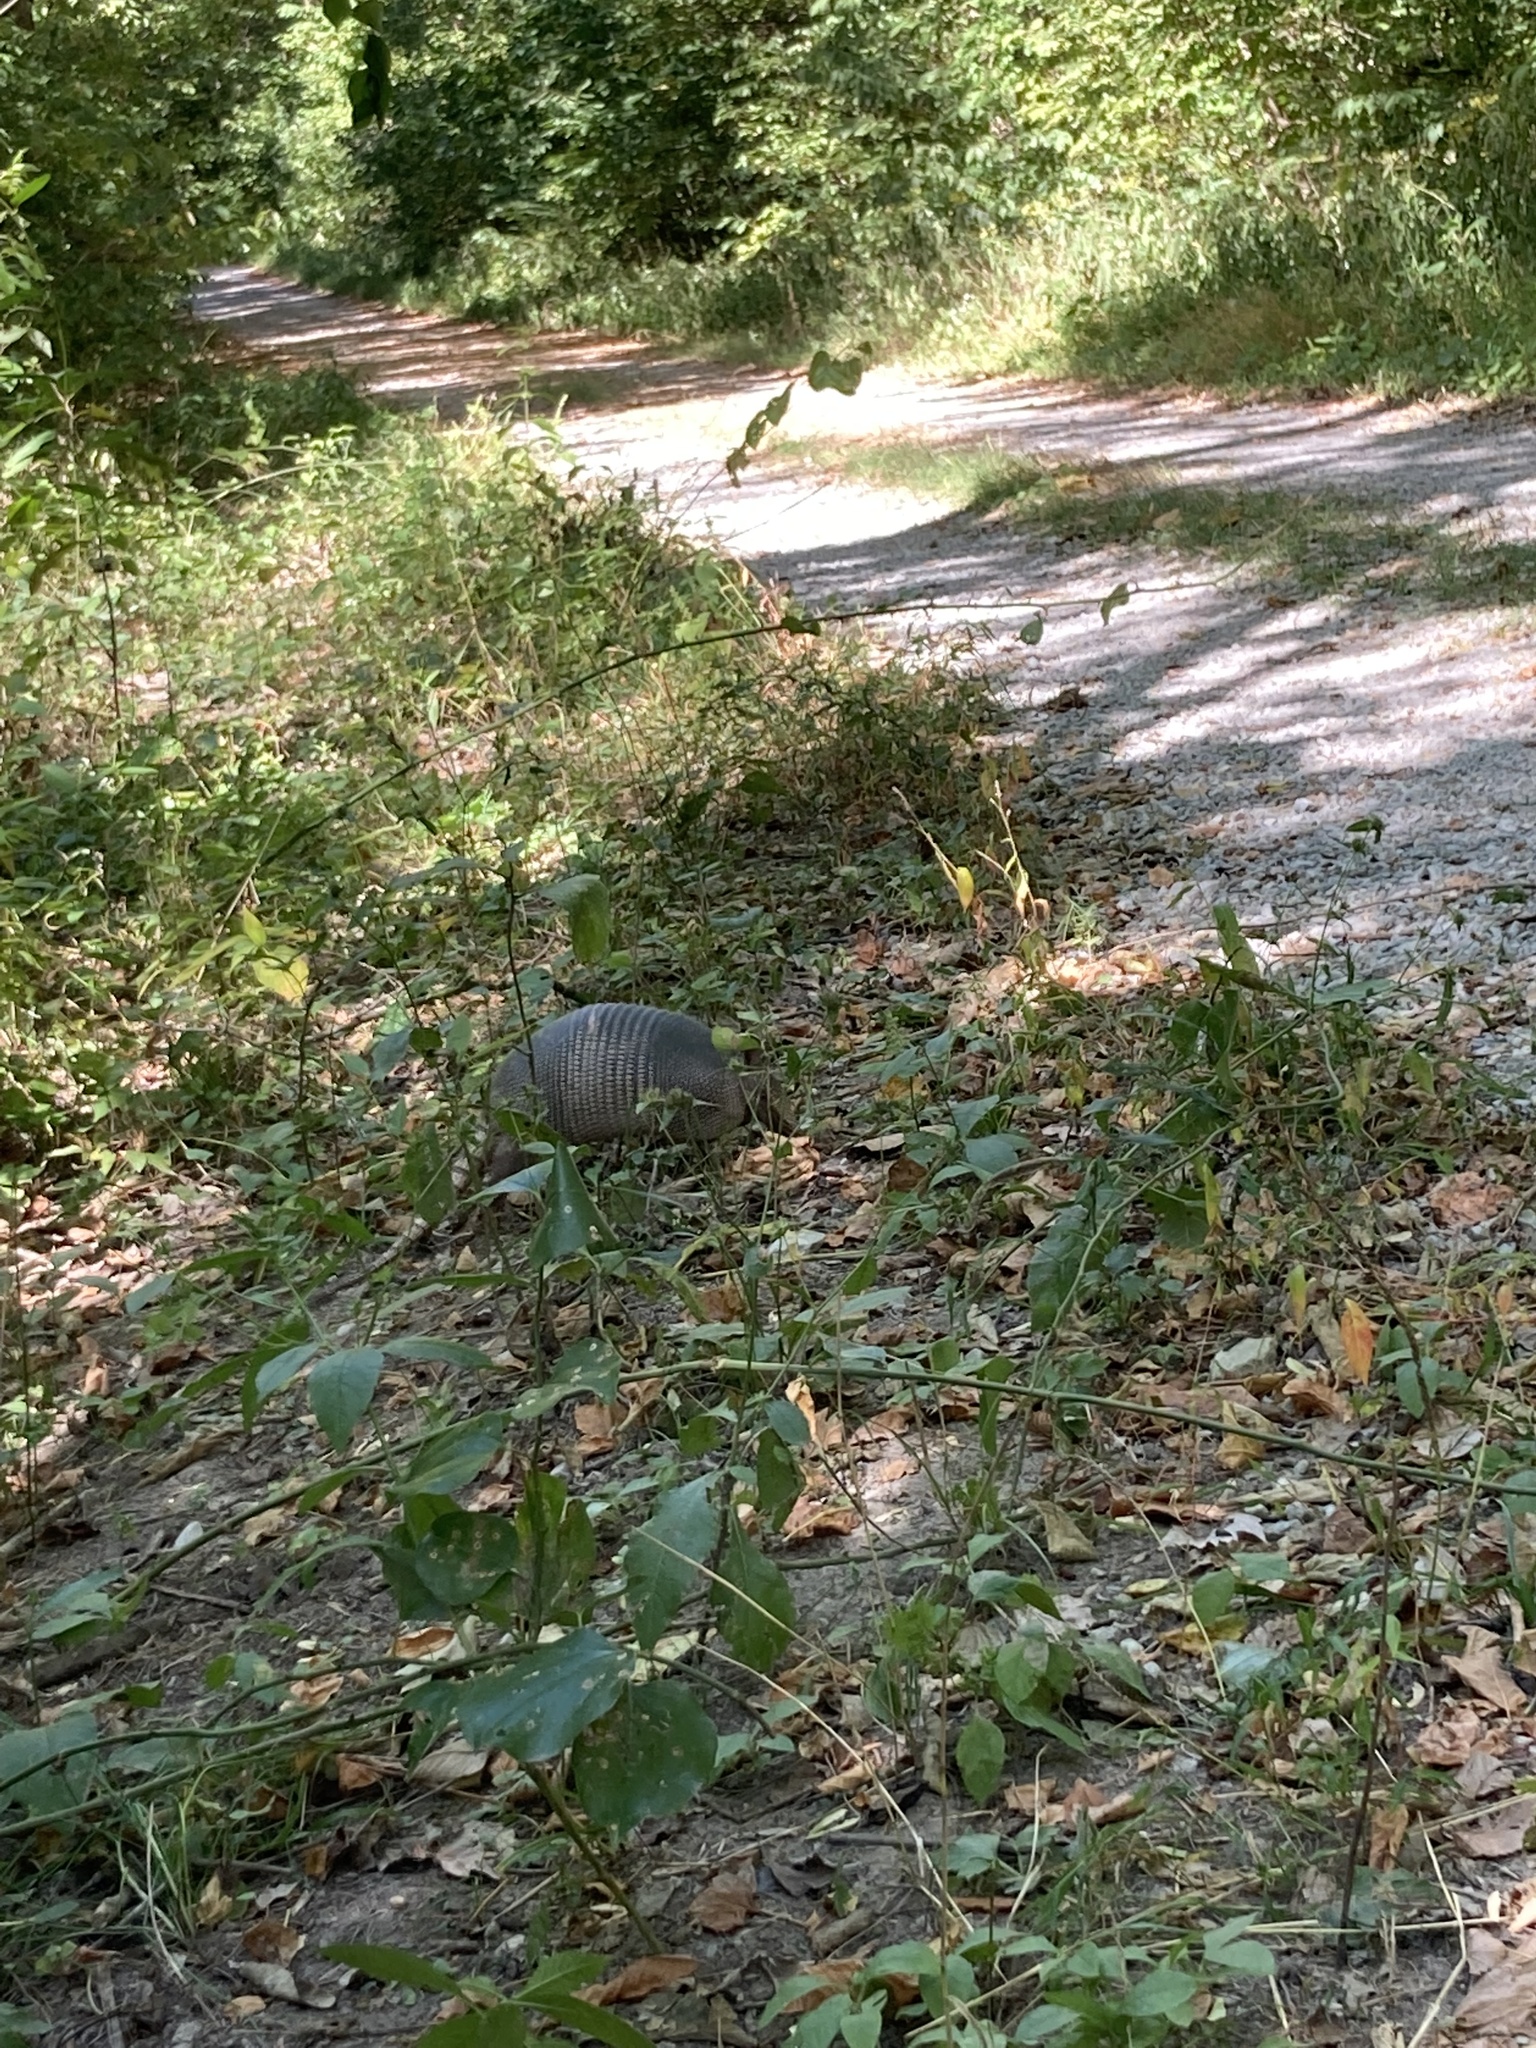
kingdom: Animalia
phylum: Chordata
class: Mammalia
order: Cingulata
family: Dasypodidae
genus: Dasypus
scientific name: Dasypus novemcinctus
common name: Nine-banded armadillo
